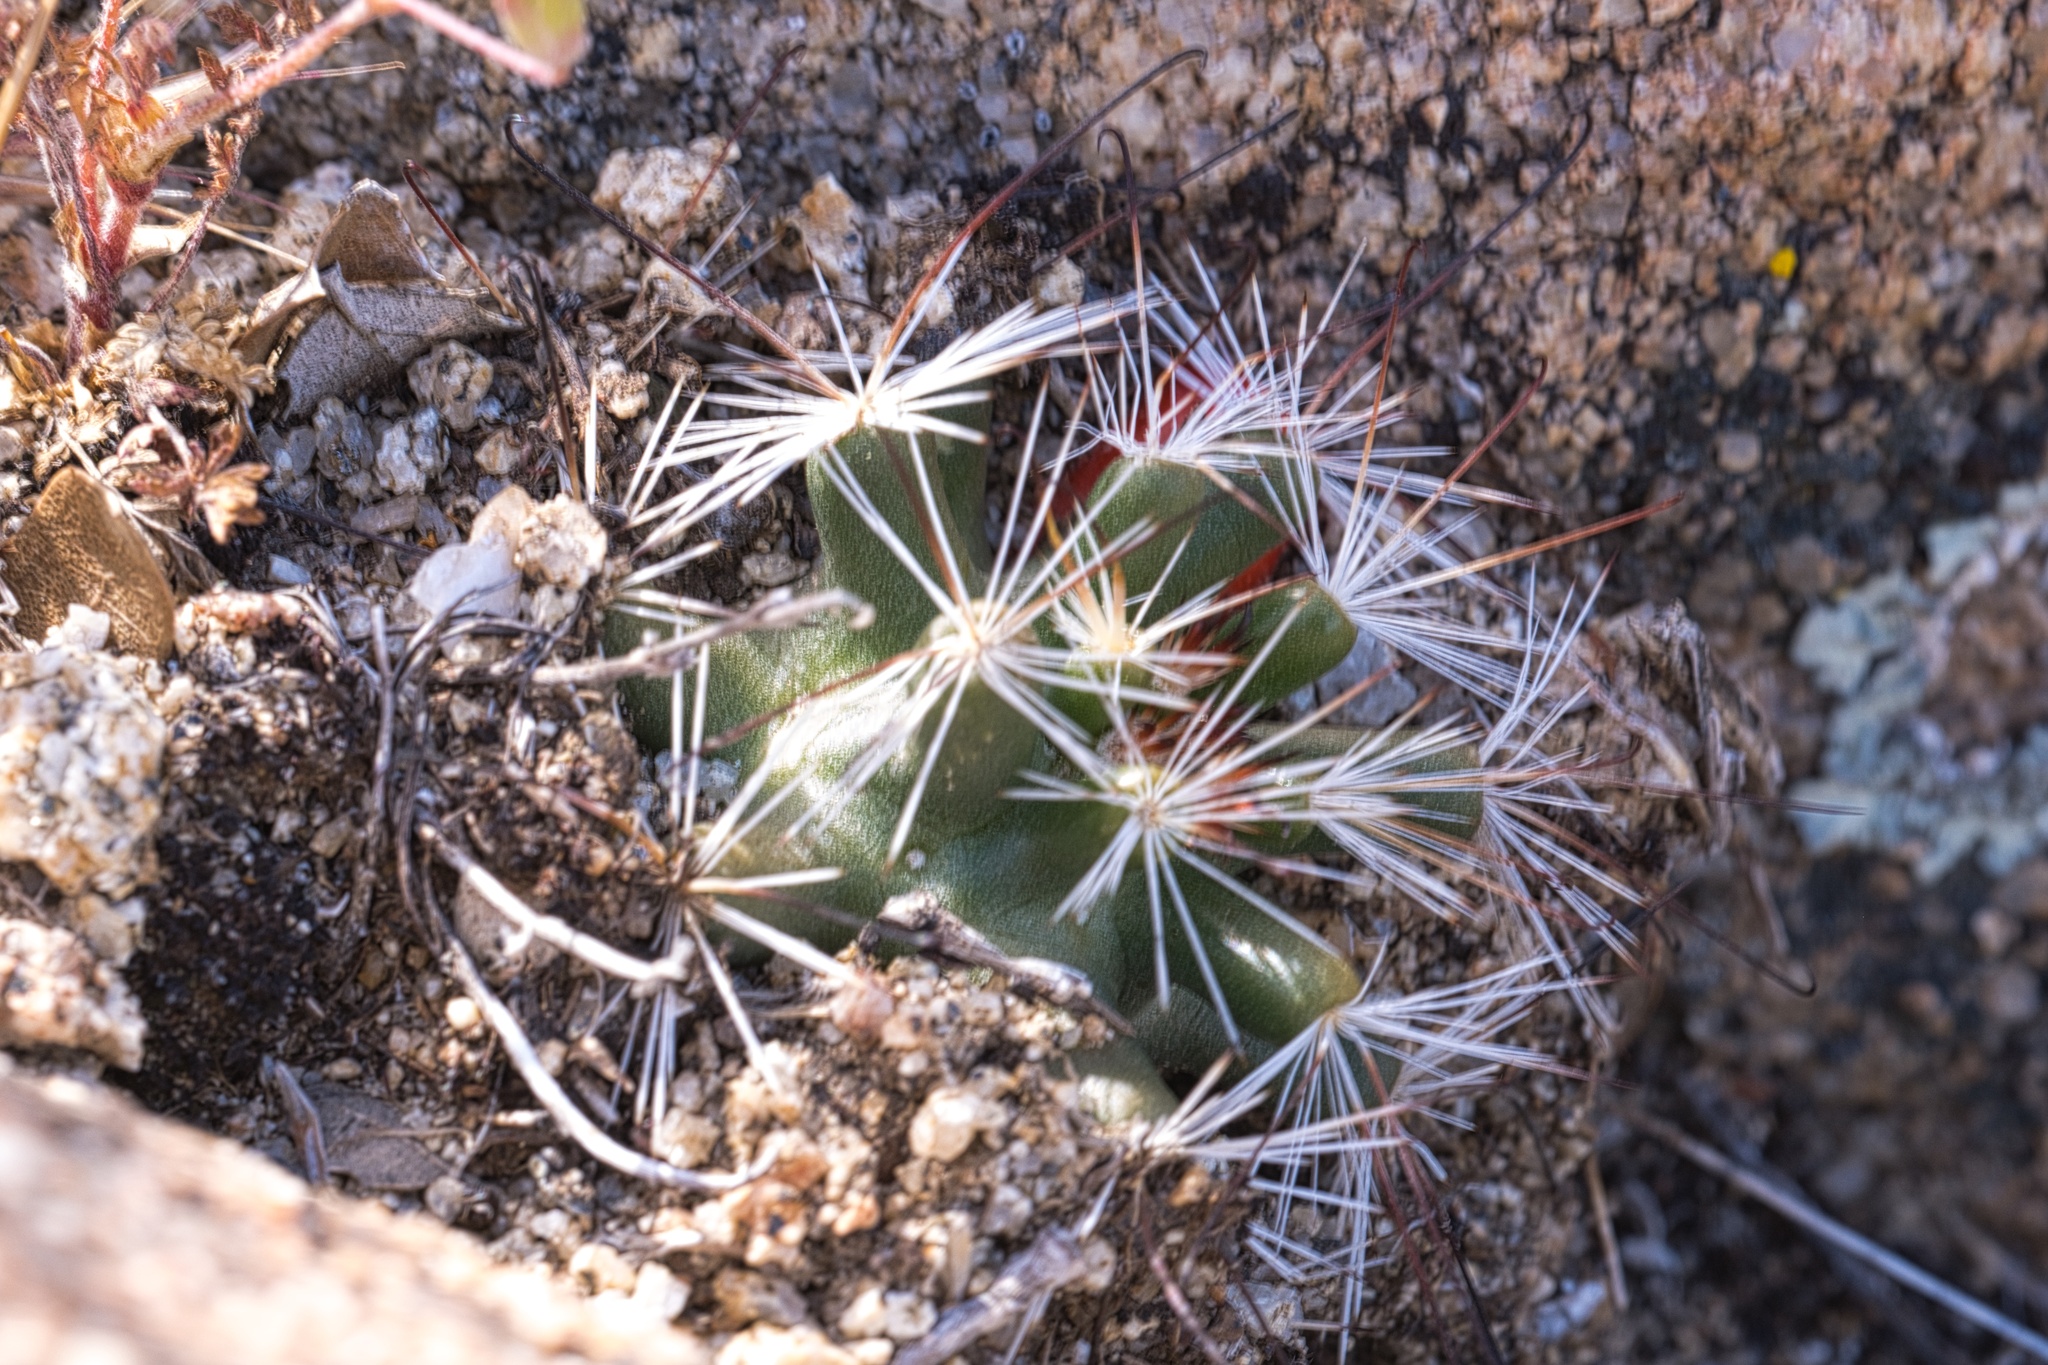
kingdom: Plantae
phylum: Tracheophyta
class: Magnoliopsida
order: Caryophyllales
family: Cactaceae
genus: Cochemiea
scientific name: Cochemiea tetrancistra
